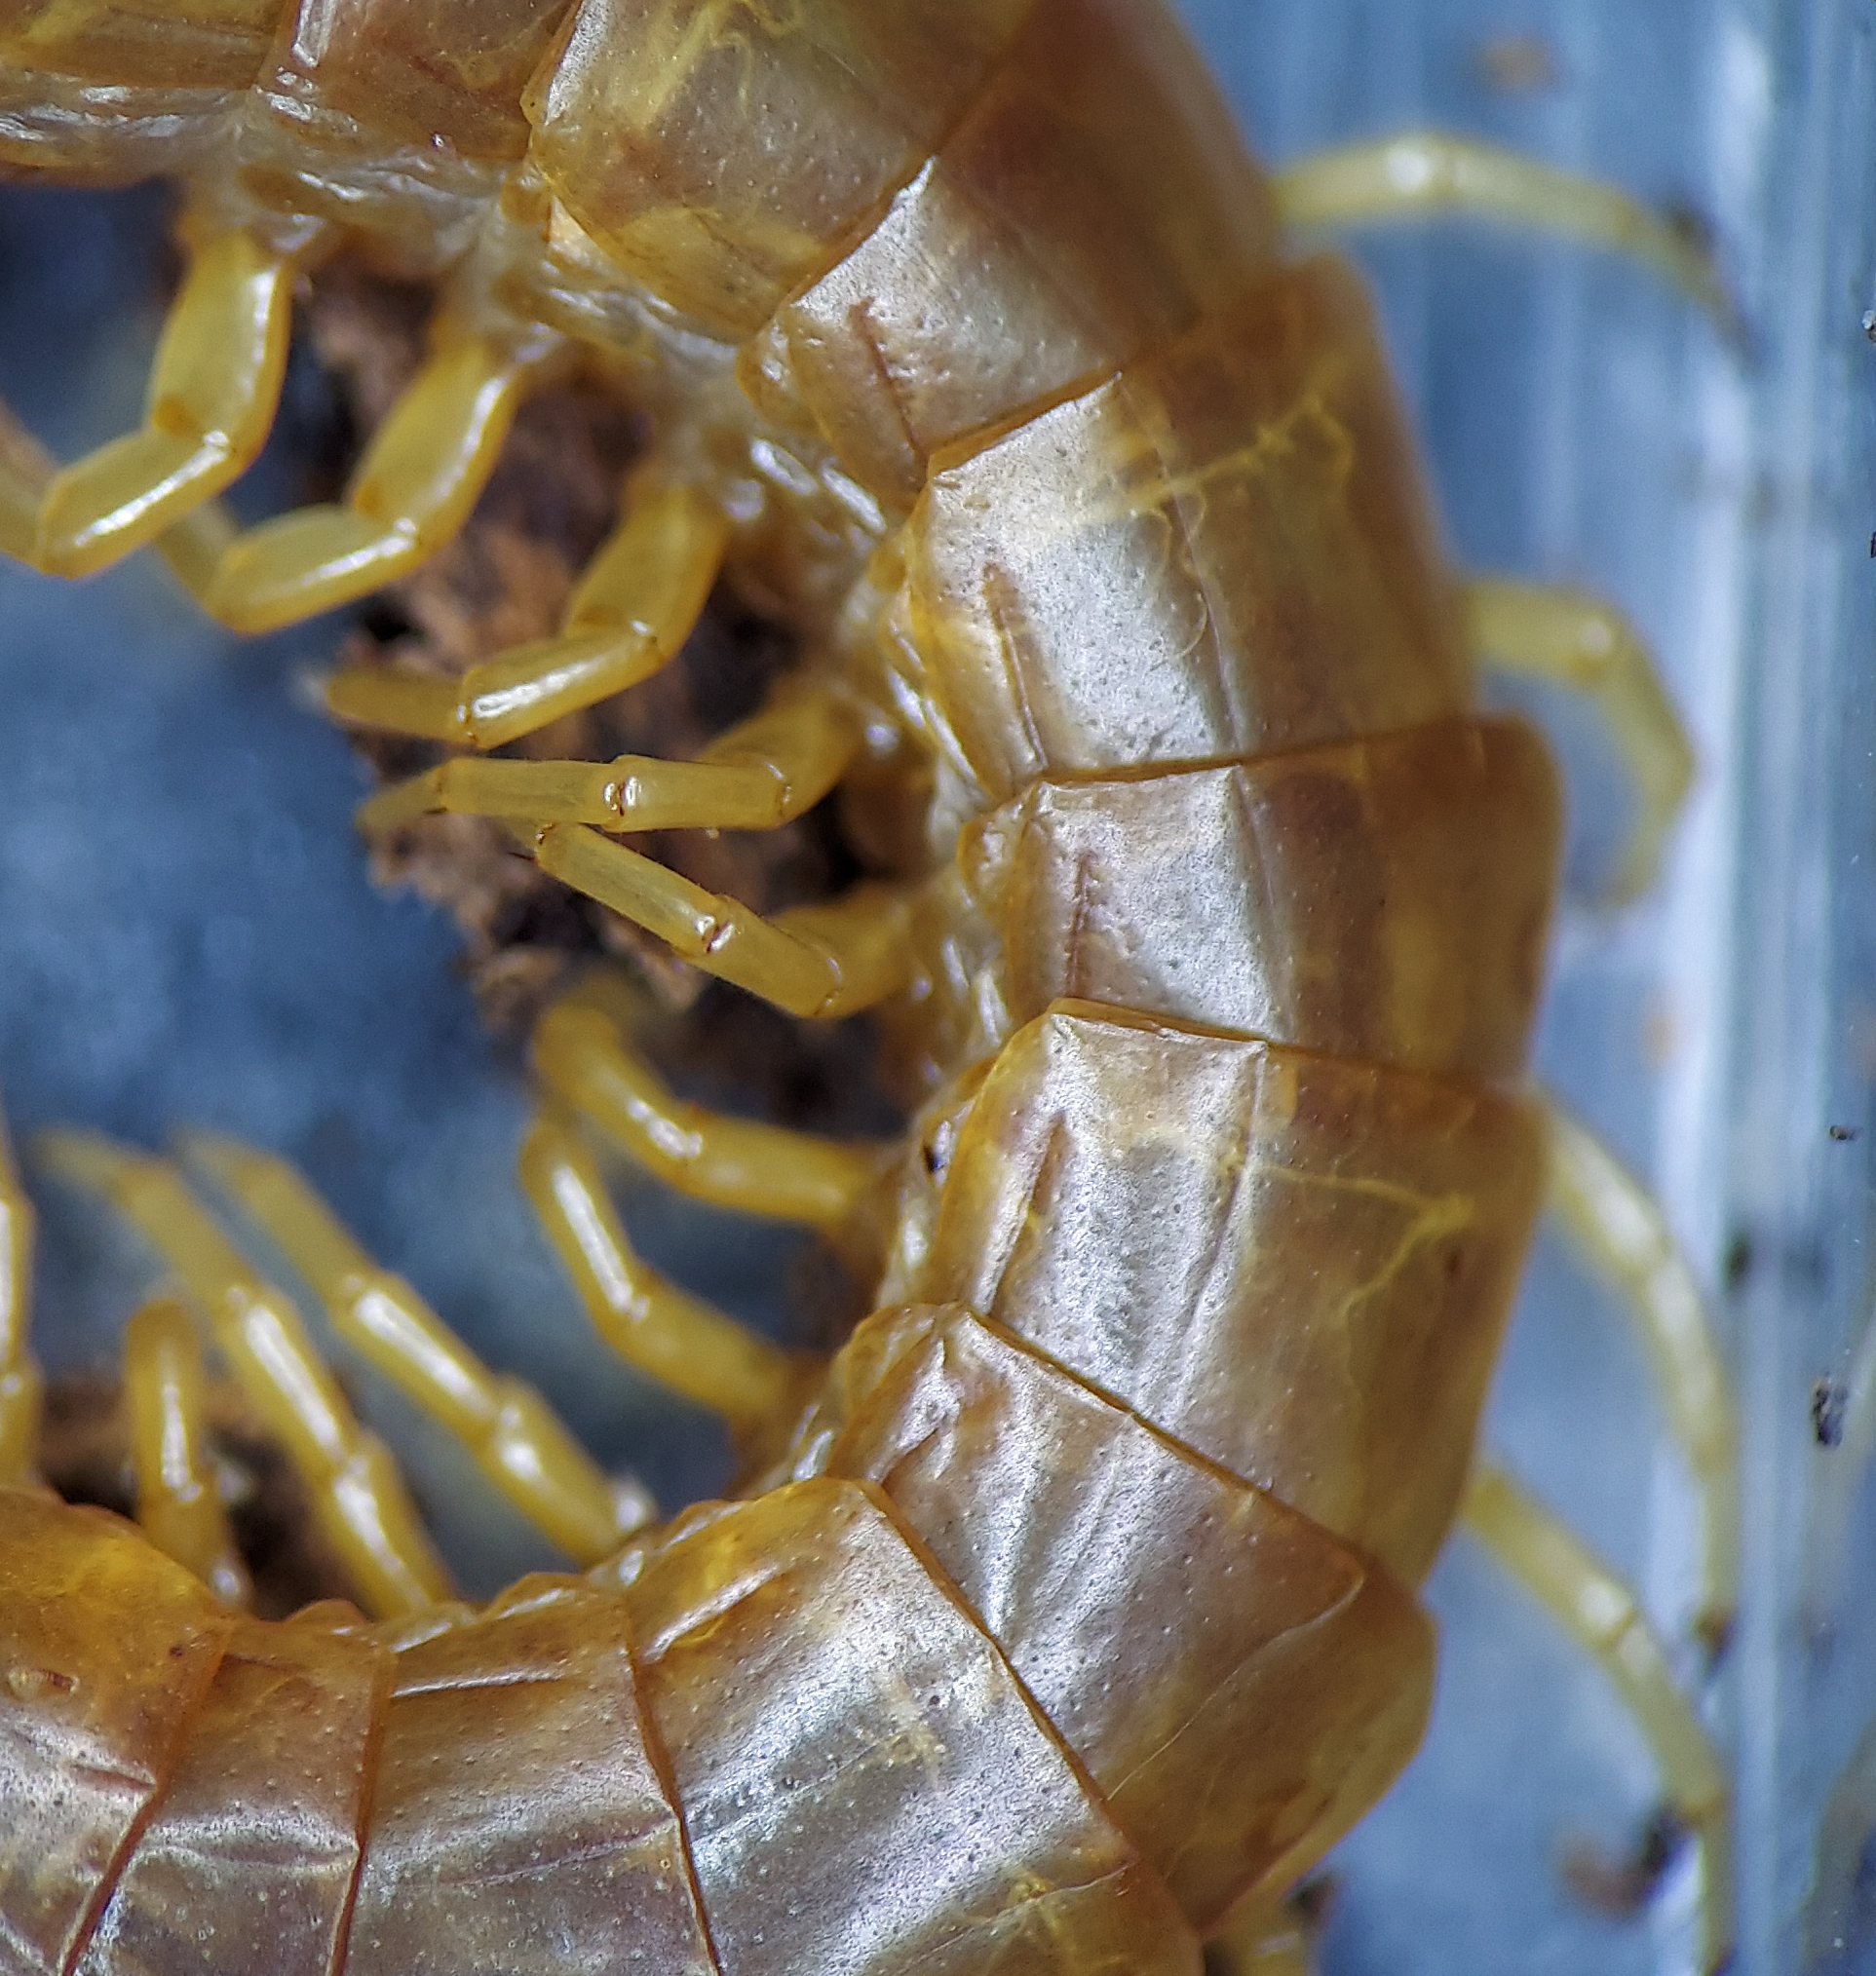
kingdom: Animalia
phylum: Arthropoda
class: Chilopoda
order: Scolopendromorpha
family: Scolopocryptopidae
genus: Scolopocryptops
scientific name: Scolopocryptops peregrinator
